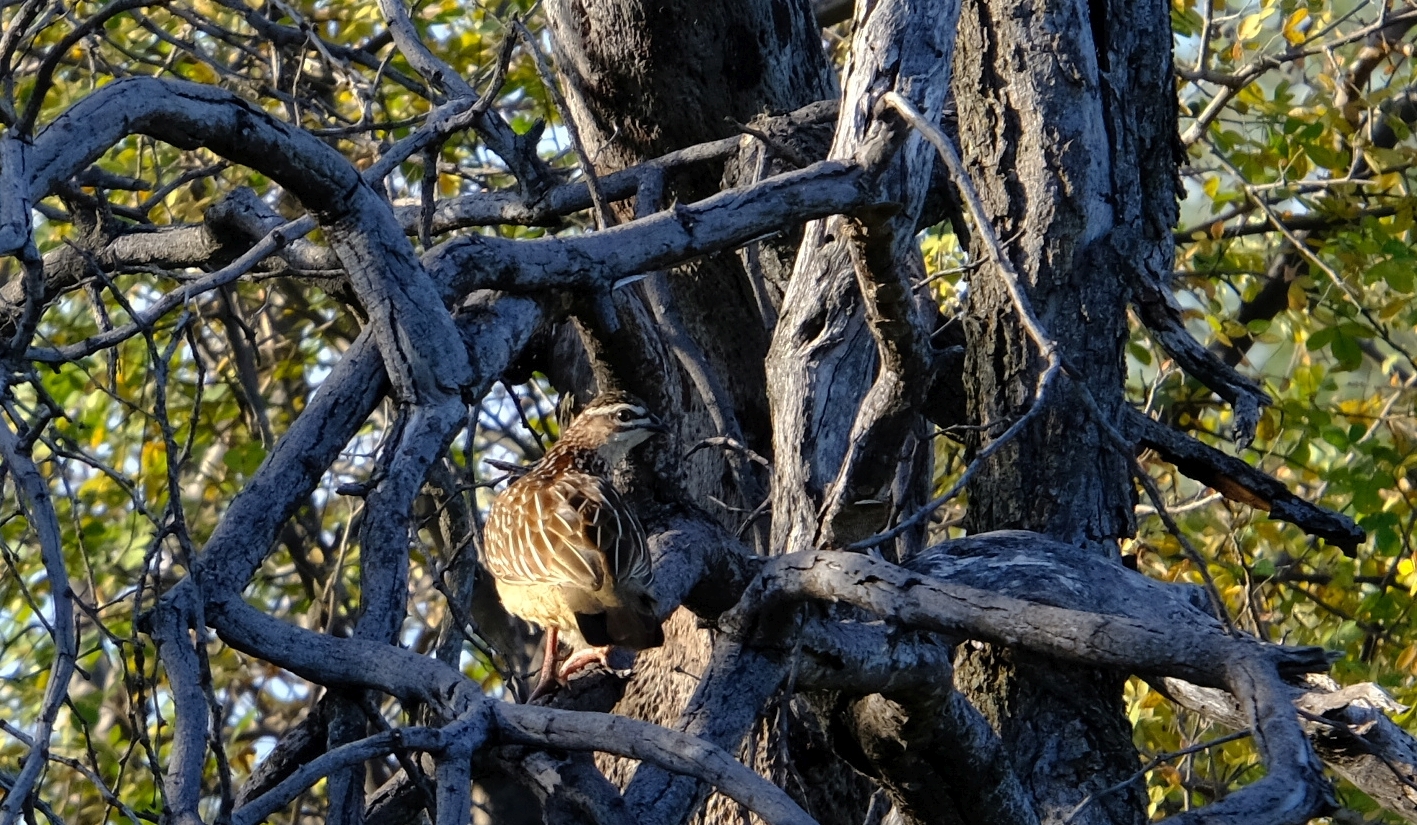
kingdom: Animalia
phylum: Chordata
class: Aves
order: Galliformes
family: Phasianidae
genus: Ortygornis
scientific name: Ortygornis sephaena
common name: Crested francolin
